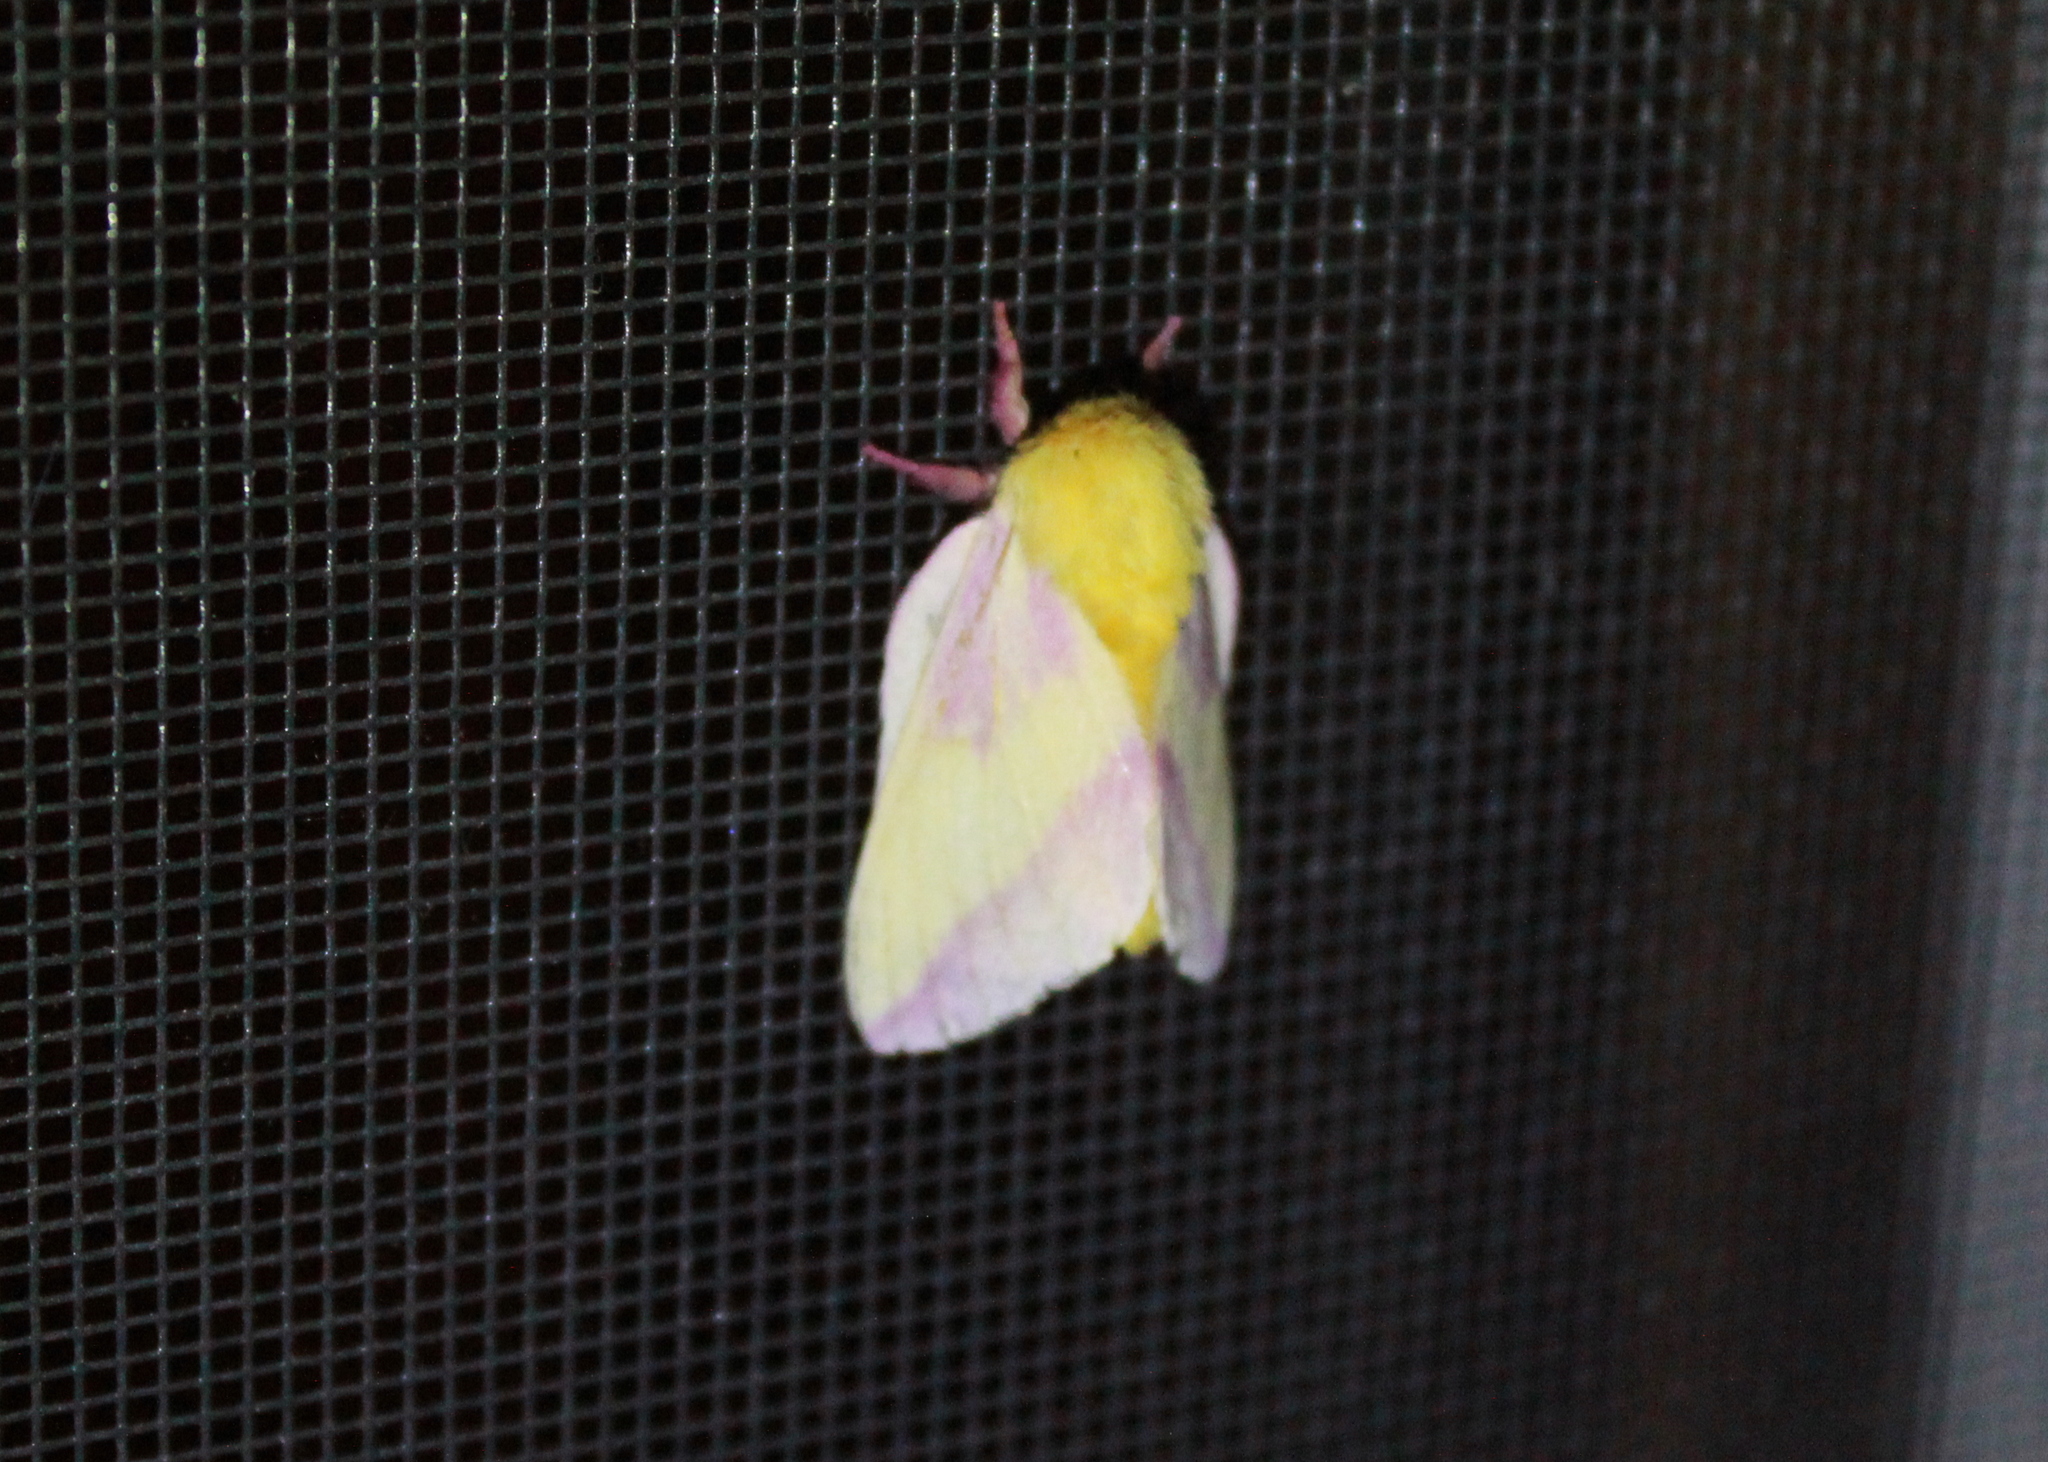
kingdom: Animalia
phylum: Arthropoda
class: Insecta
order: Lepidoptera
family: Saturniidae
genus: Dryocampa
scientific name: Dryocampa rubicunda
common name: Rosy maple moth
